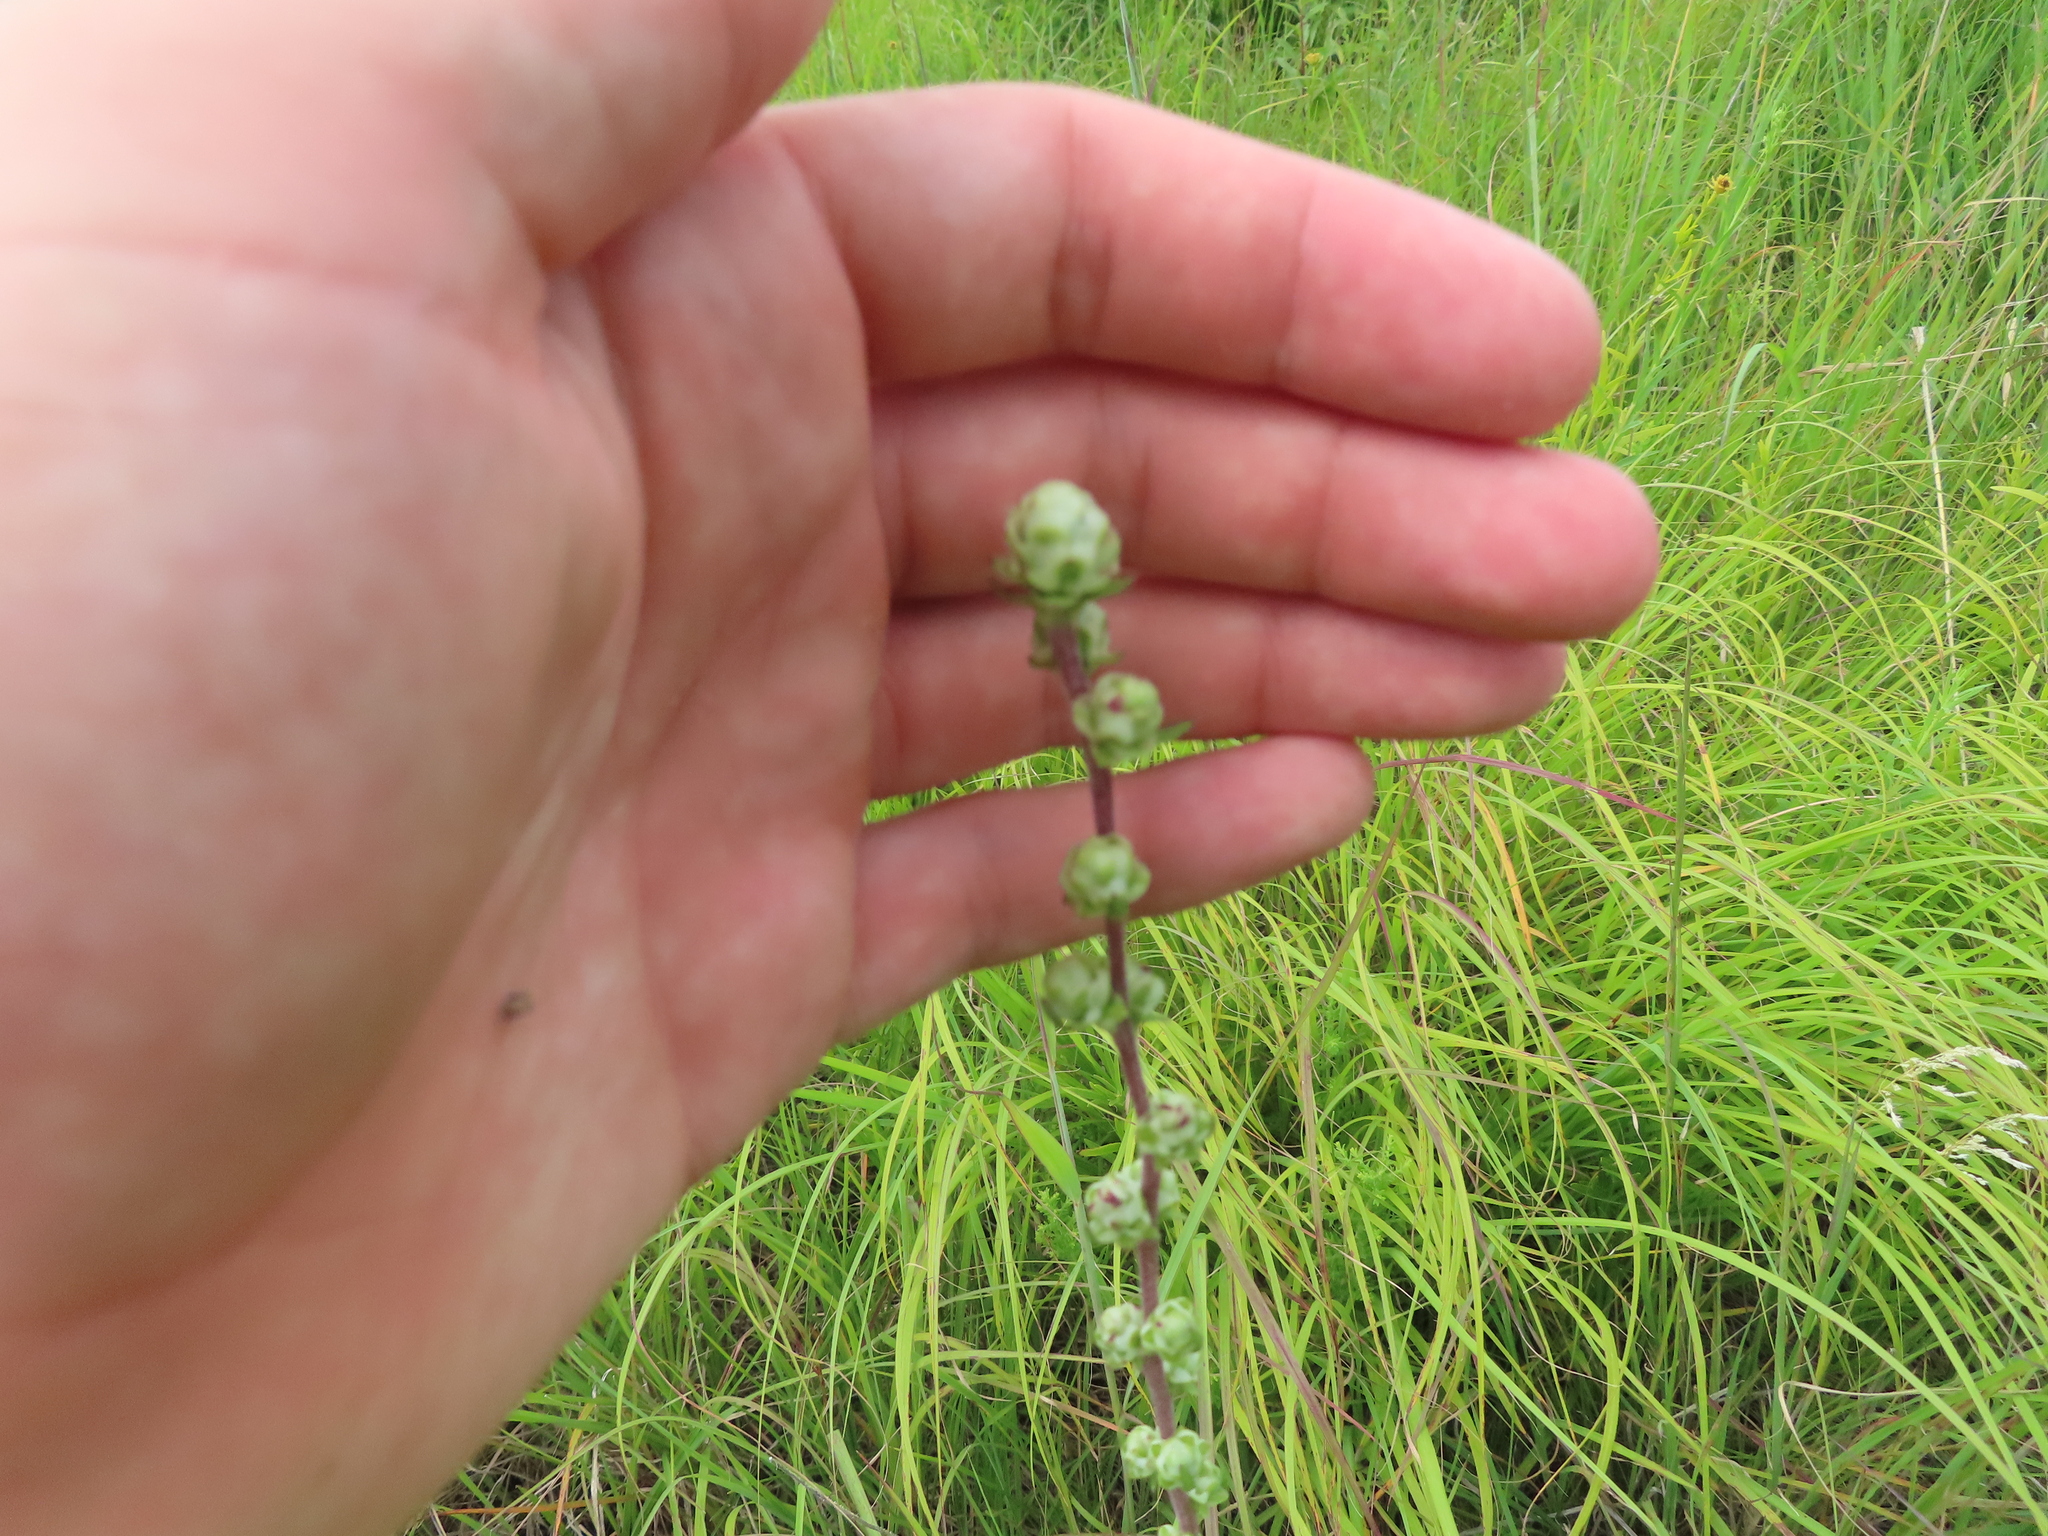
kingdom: Plantae
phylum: Tracheophyta
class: Magnoliopsida
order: Asterales
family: Asteraceae
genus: Liatris
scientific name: Liatris aspera
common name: Lacerate blazing-star
